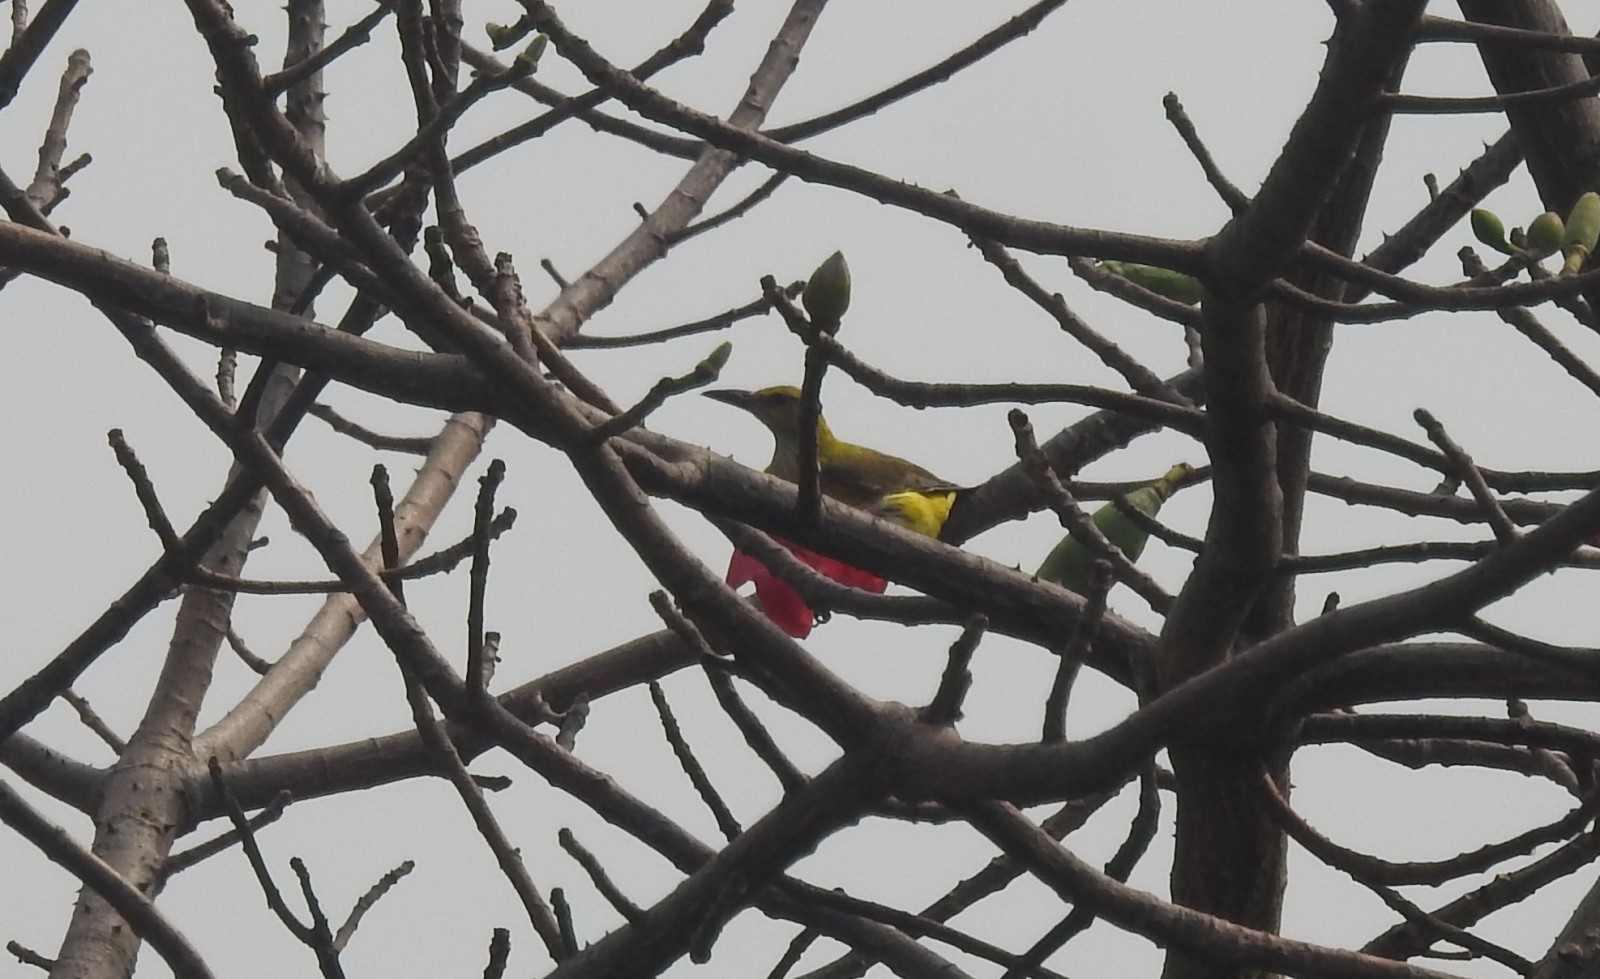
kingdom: Animalia
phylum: Chordata
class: Aves
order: Passeriformes
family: Oriolidae
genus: Oriolus
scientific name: Oriolus kundoo
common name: Indian golden oriole
